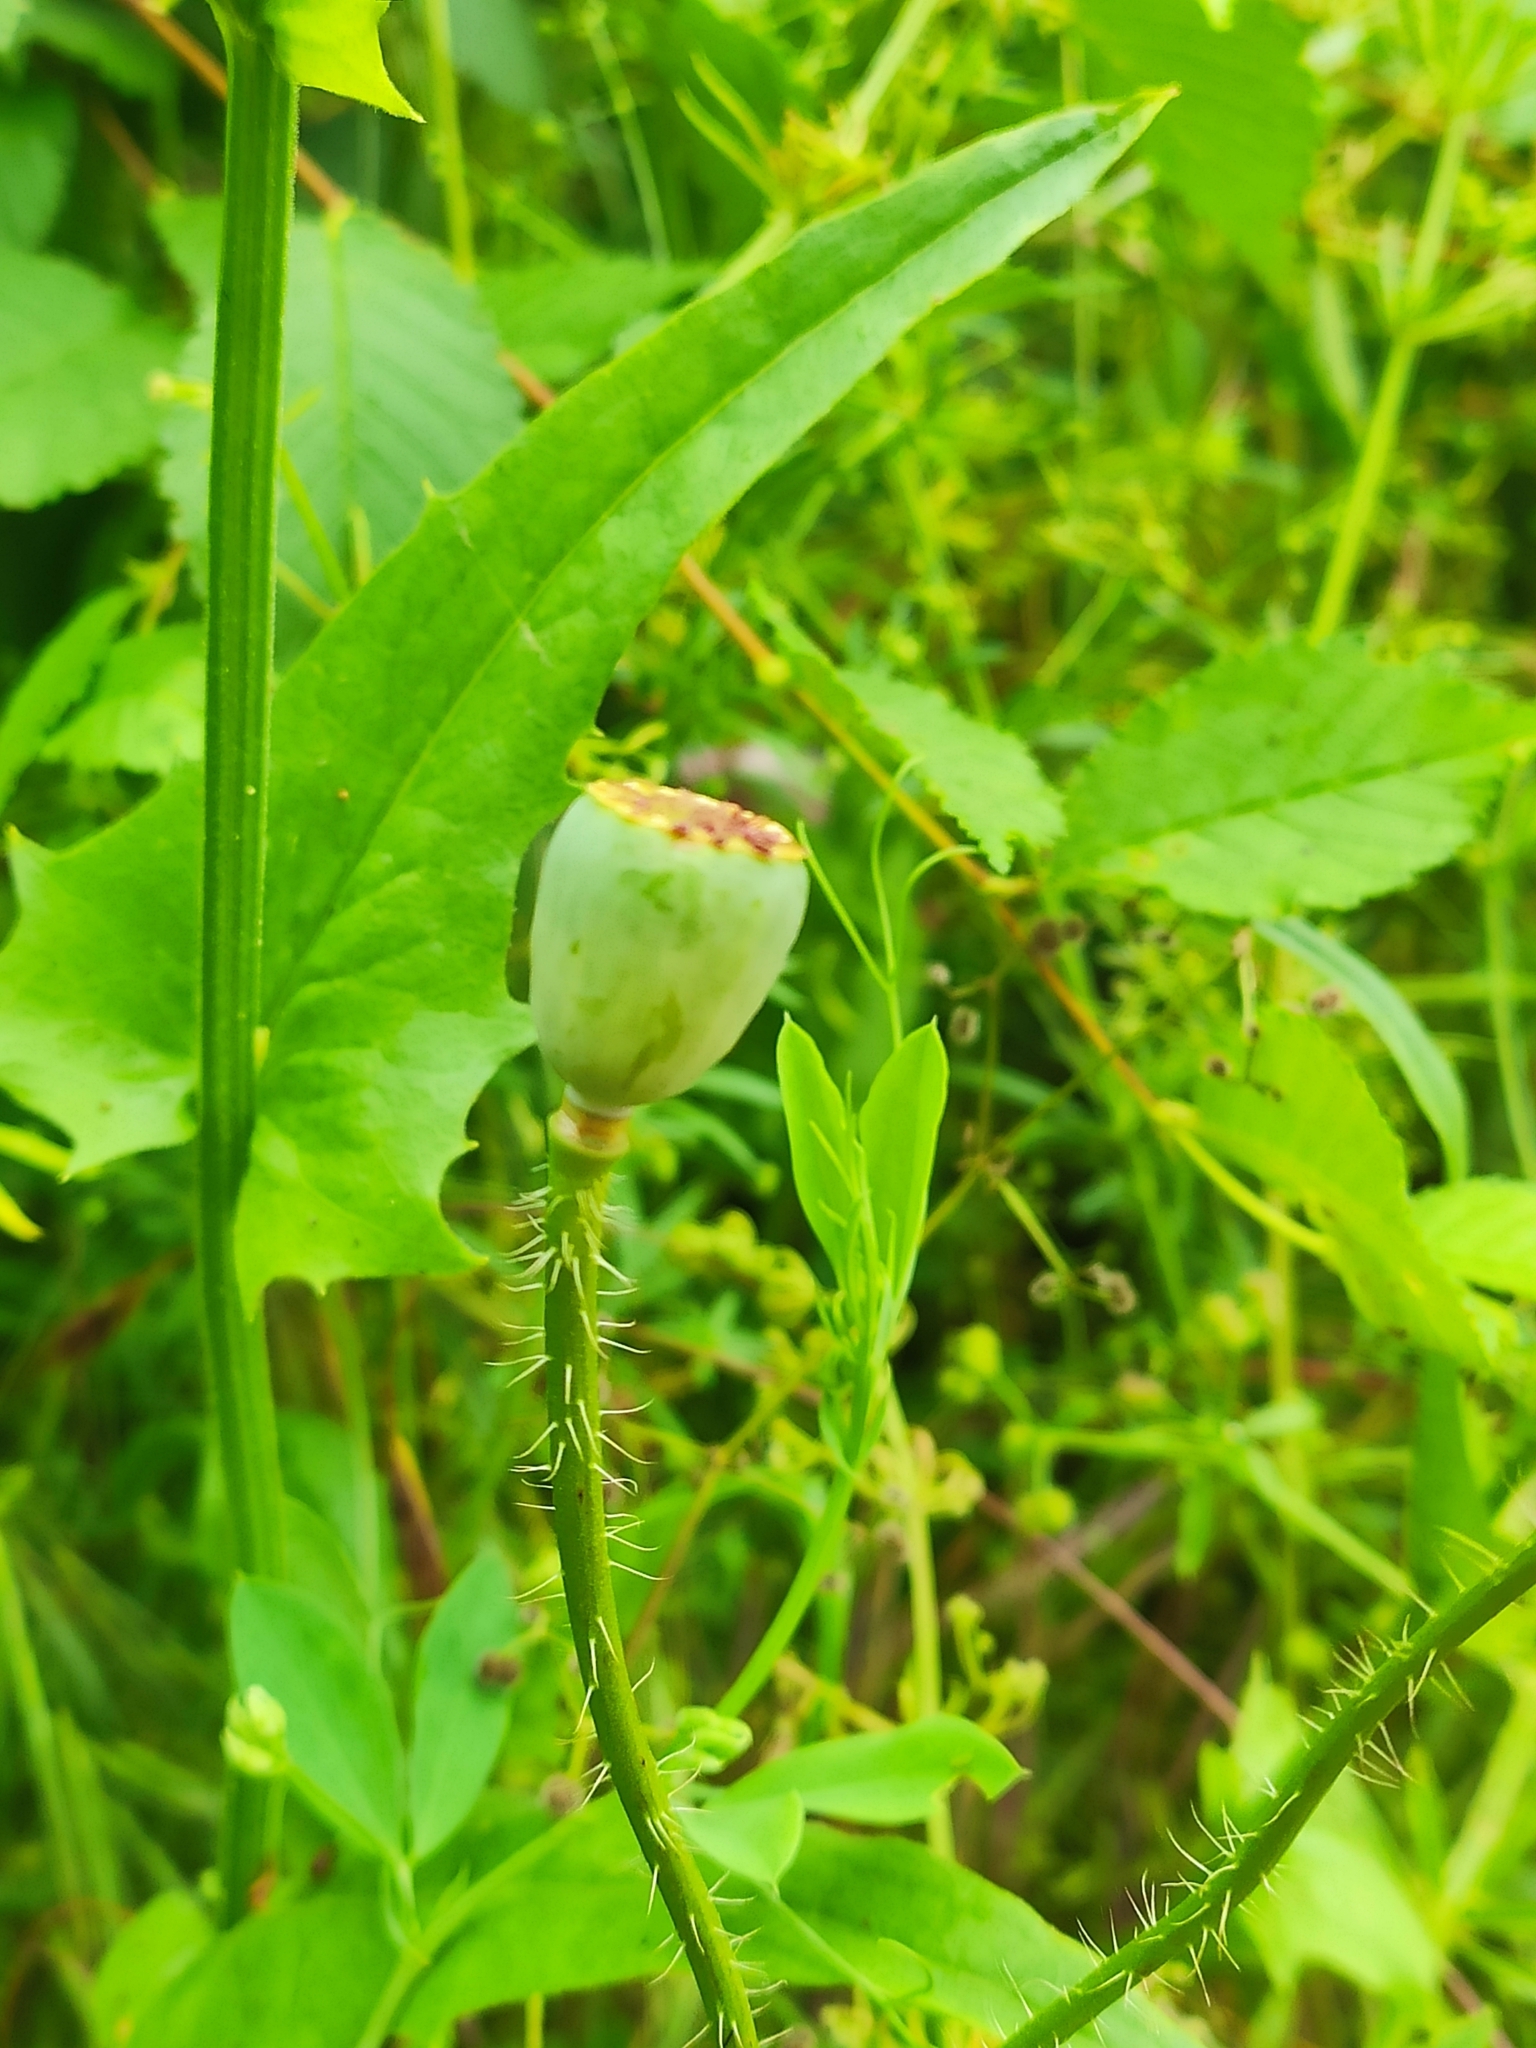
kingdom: Plantae
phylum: Tracheophyta
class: Magnoliopsida
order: Ranunculales
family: Papaveraceae
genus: Papaver
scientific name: Papaver rhoeas
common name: Corn poppy
